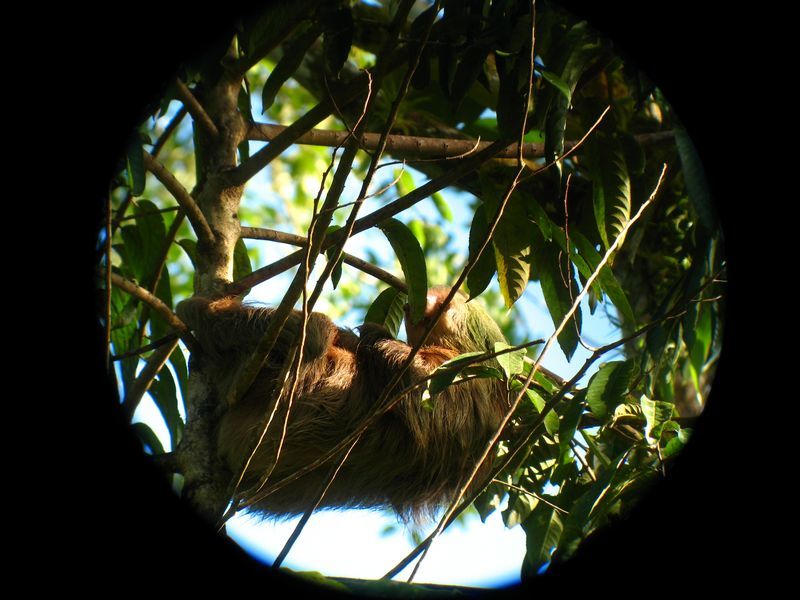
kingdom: Animalia
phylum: Chordata
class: Mammalia
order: Pilosa
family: Megalonychidae
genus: Choloepus
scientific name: Choloepus hoffmanni
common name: Hoffmann's two-toed sloth
